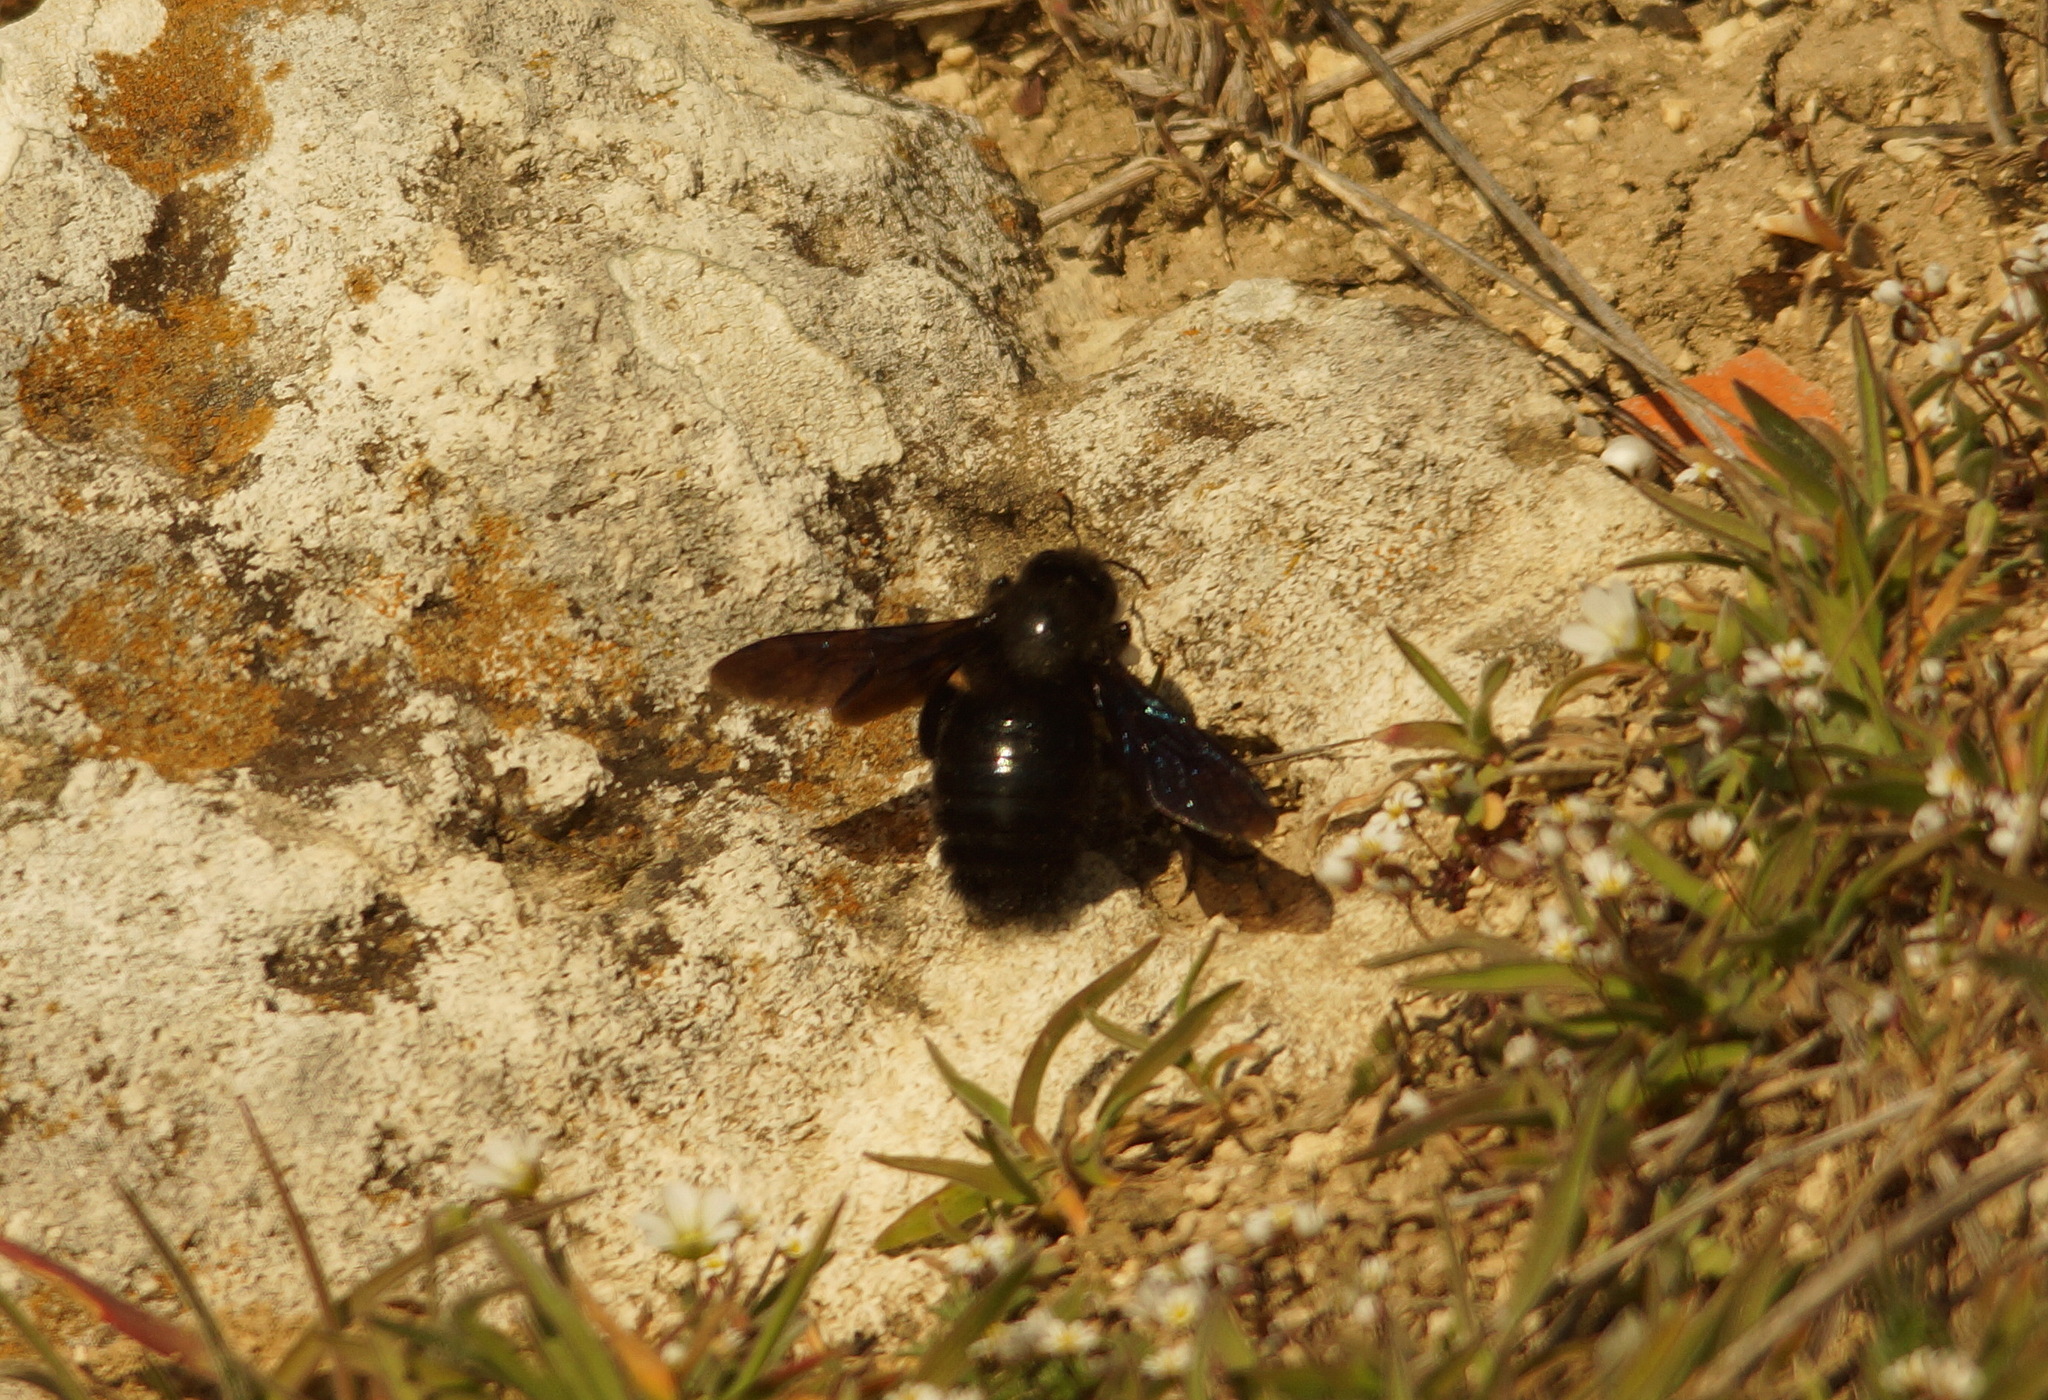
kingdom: Animalia
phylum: Arthropoda
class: Insecta
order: Hymenoptera
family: Apidae
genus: Xylocopa
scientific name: Xylocopa violacea
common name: Violet carpenter bee
